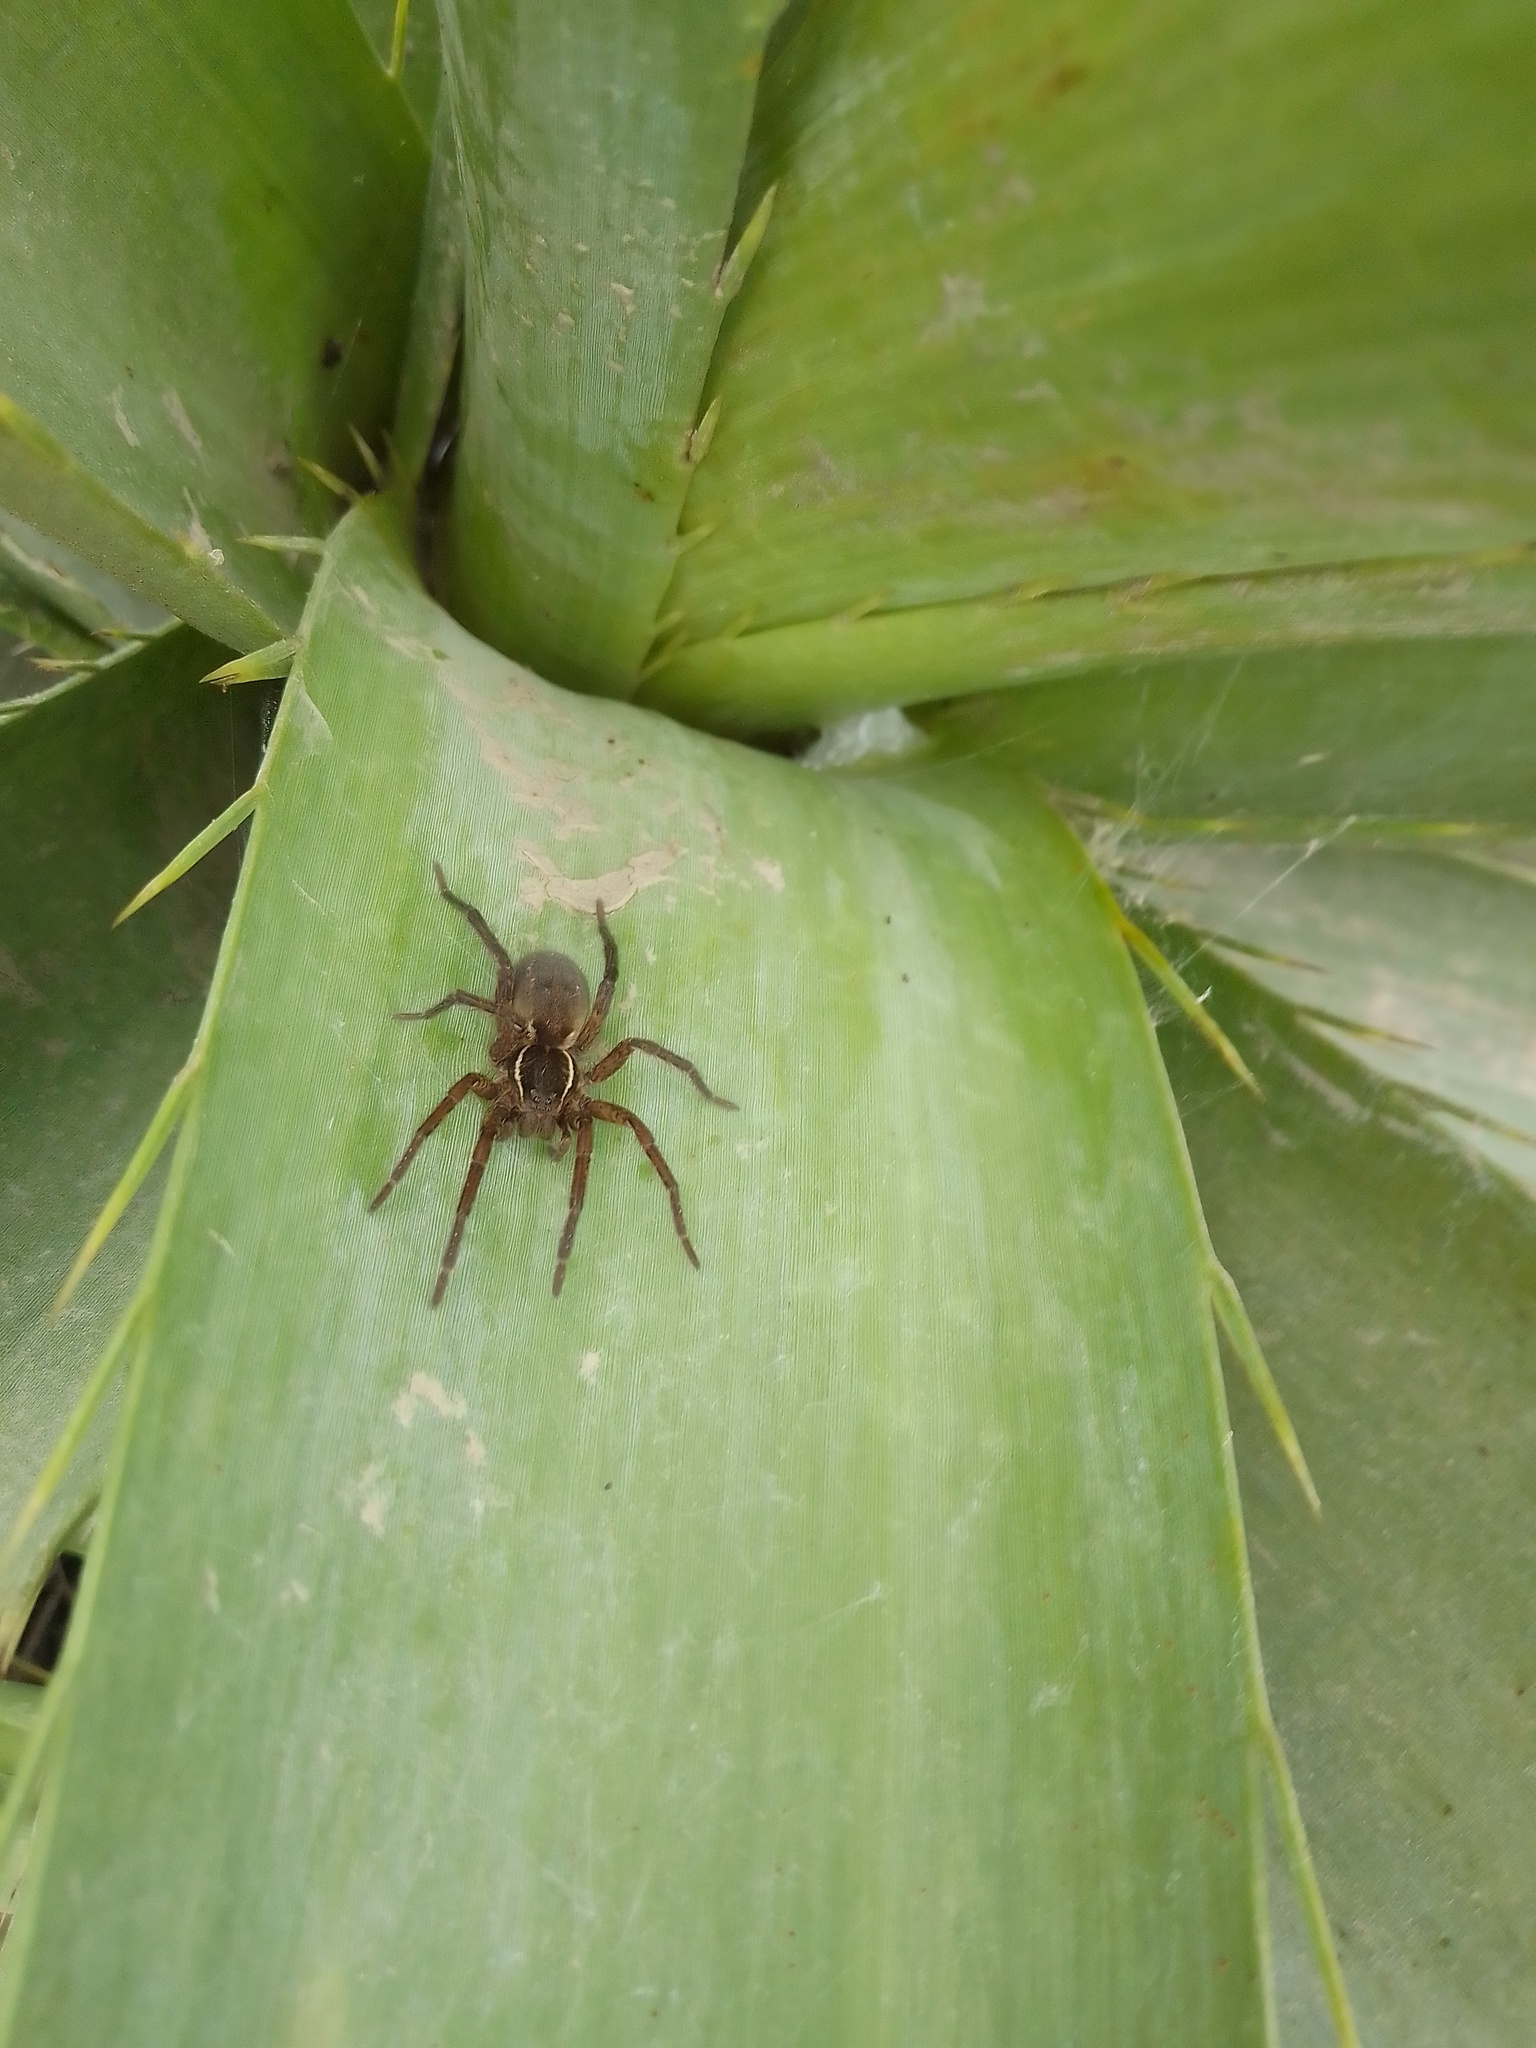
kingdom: Animalia
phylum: Arthropoda
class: Arachnida
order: Araneae
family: Lycosidae
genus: Aglaoctenus
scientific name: Aglaoctenus oblongus
